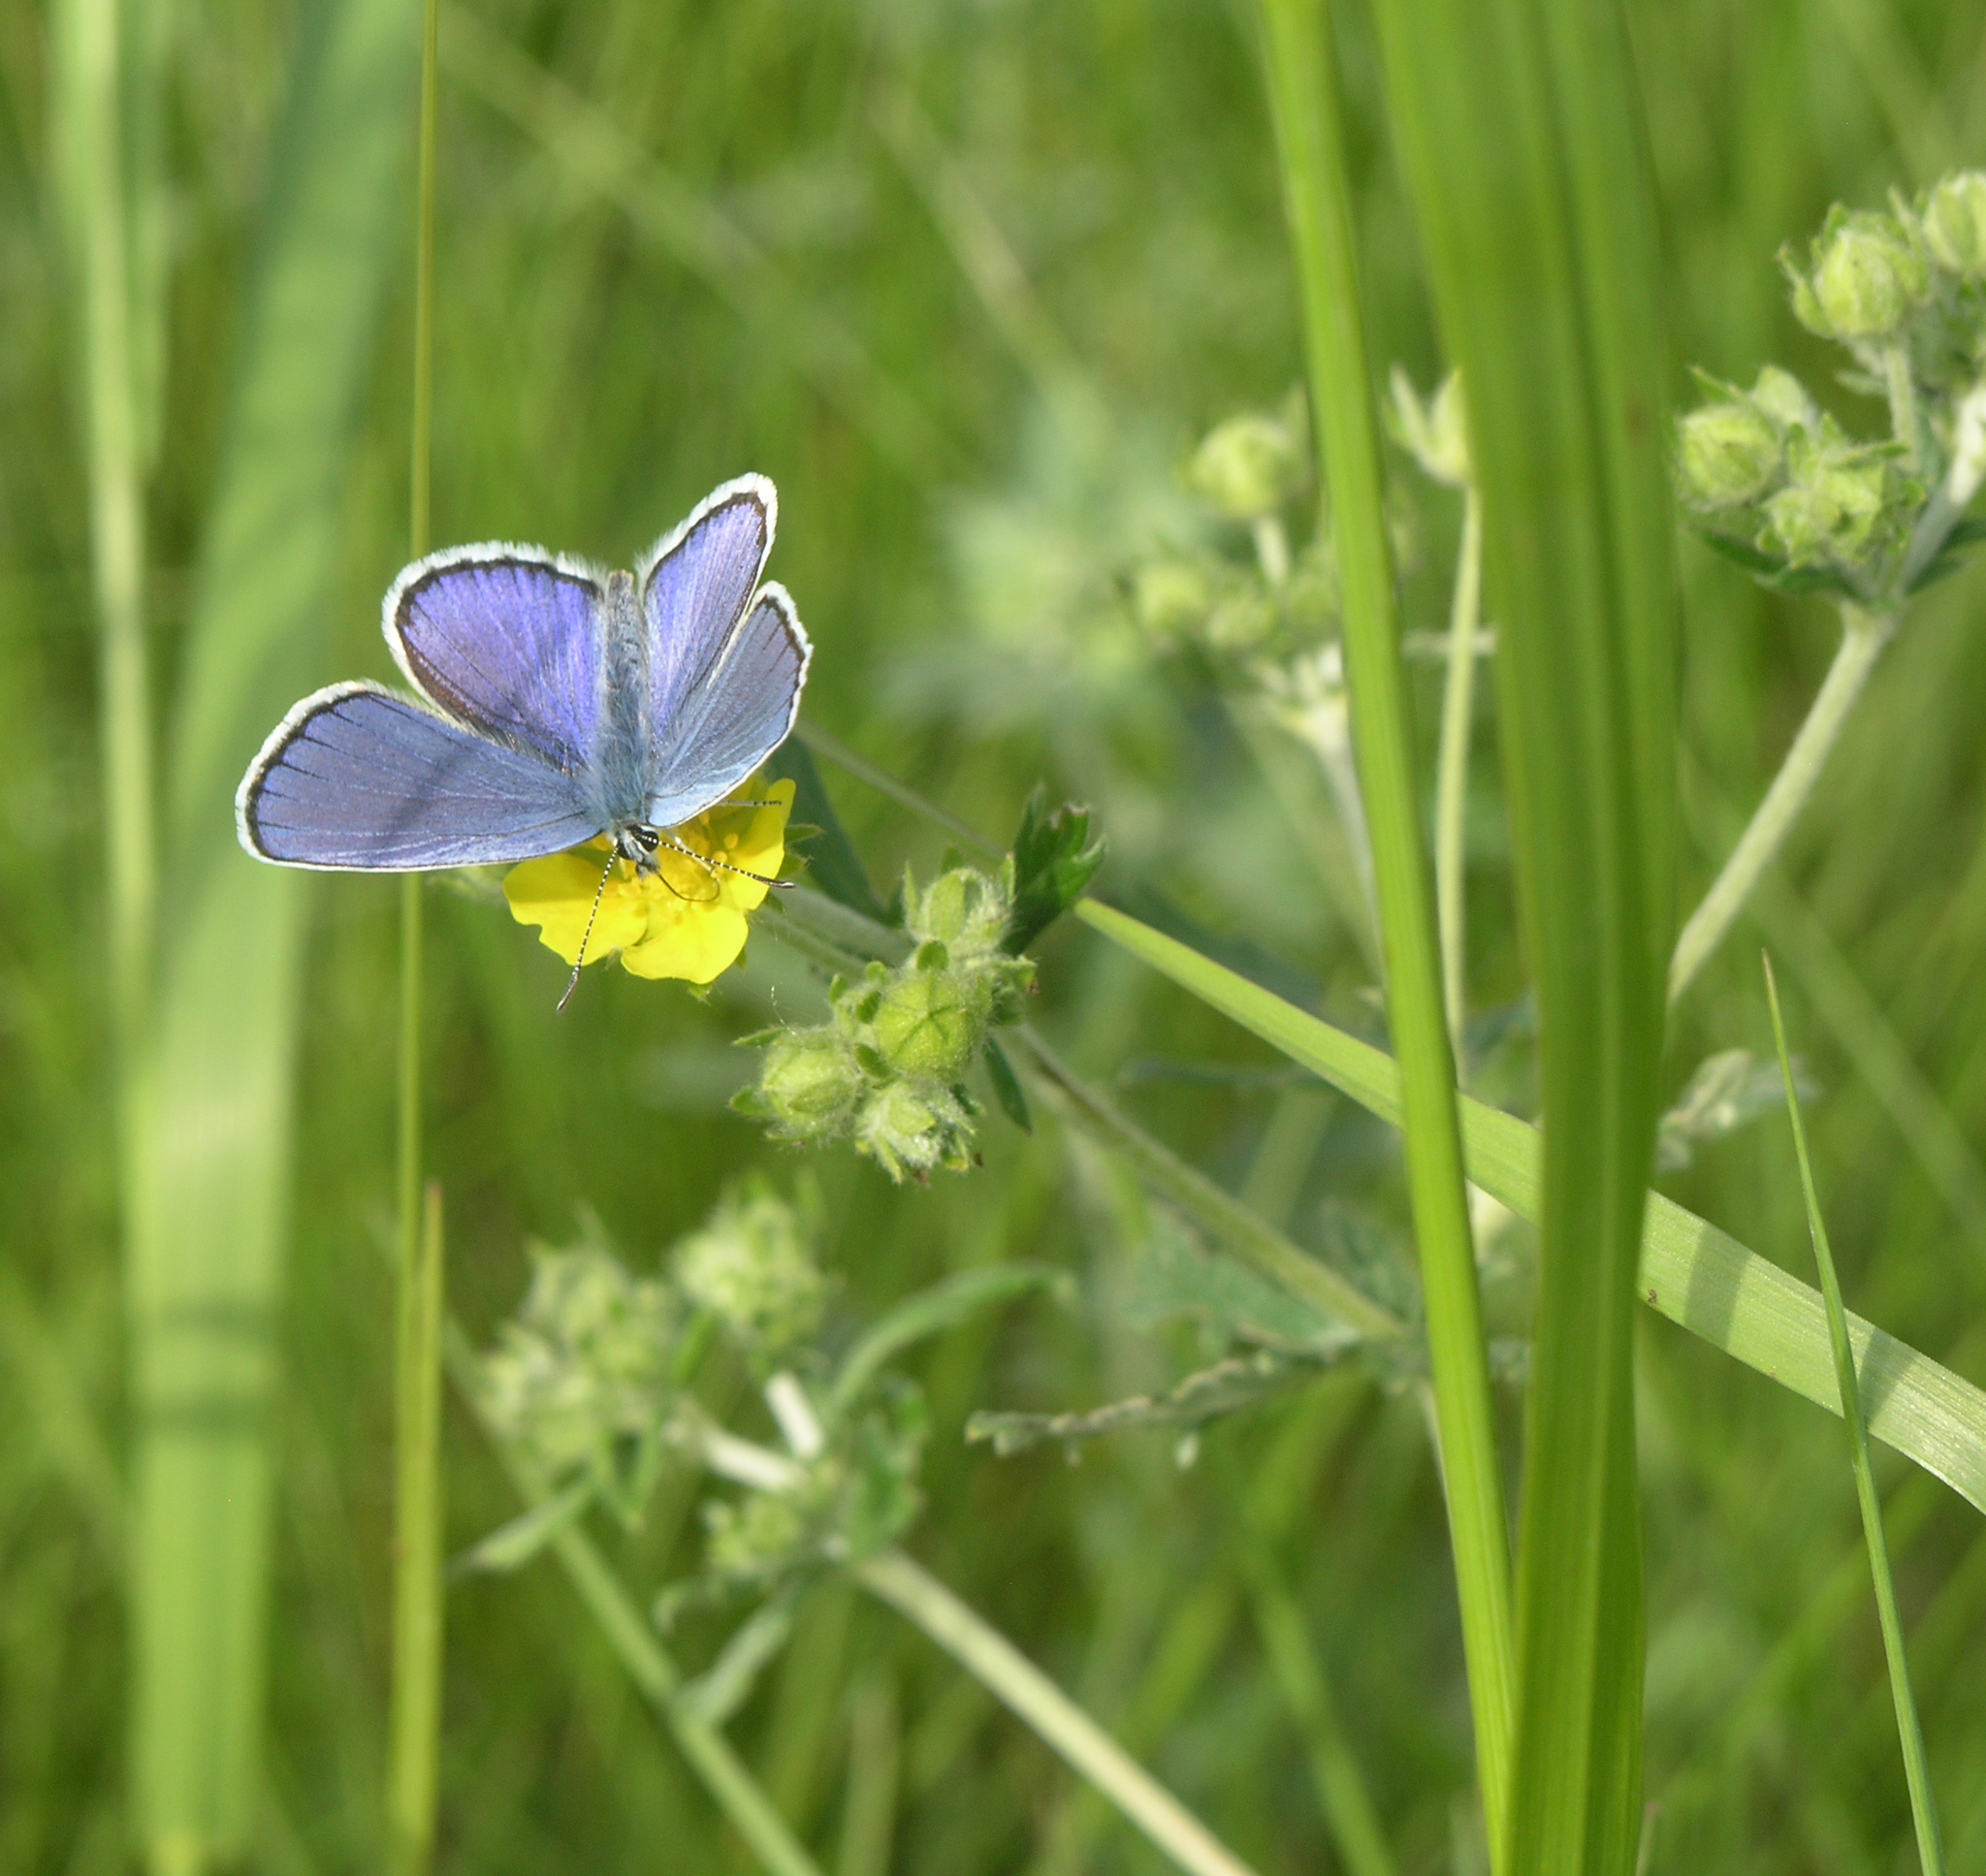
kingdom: Plantae
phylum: Tracheophyta
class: Magnoliopsida
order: Rosales
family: Rosaceae
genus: Potentilla
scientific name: Potentilla argentea
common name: Hoary cinquefoil
